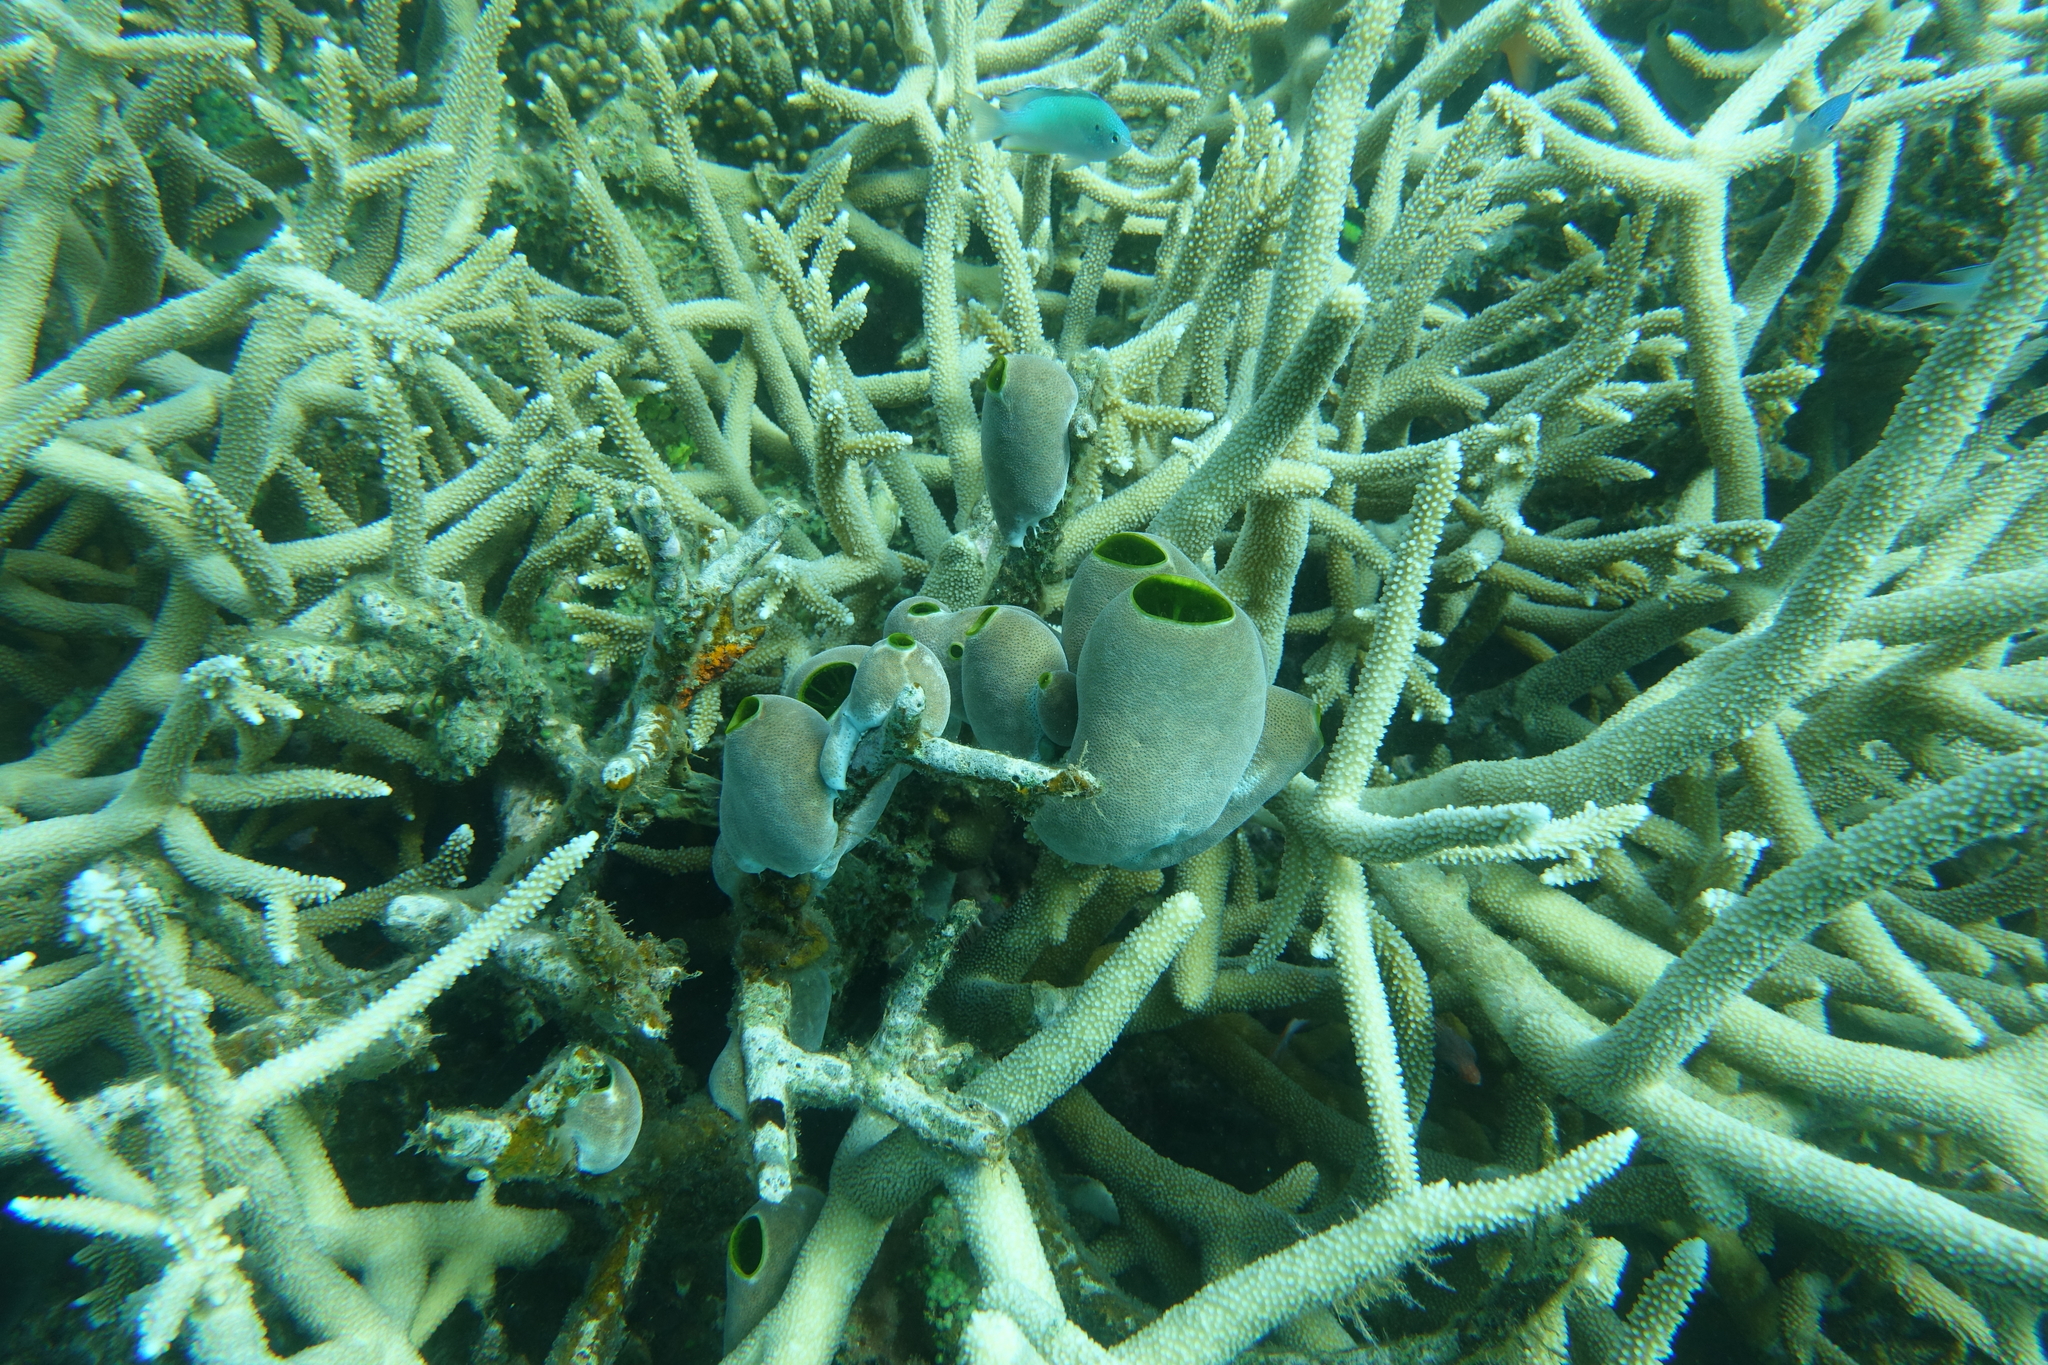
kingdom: Animalia
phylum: Chordata
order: Perciformes
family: Pomacentridae
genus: Pomacentrus
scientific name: Pomacentrus pavo
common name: Sapphire damsel
